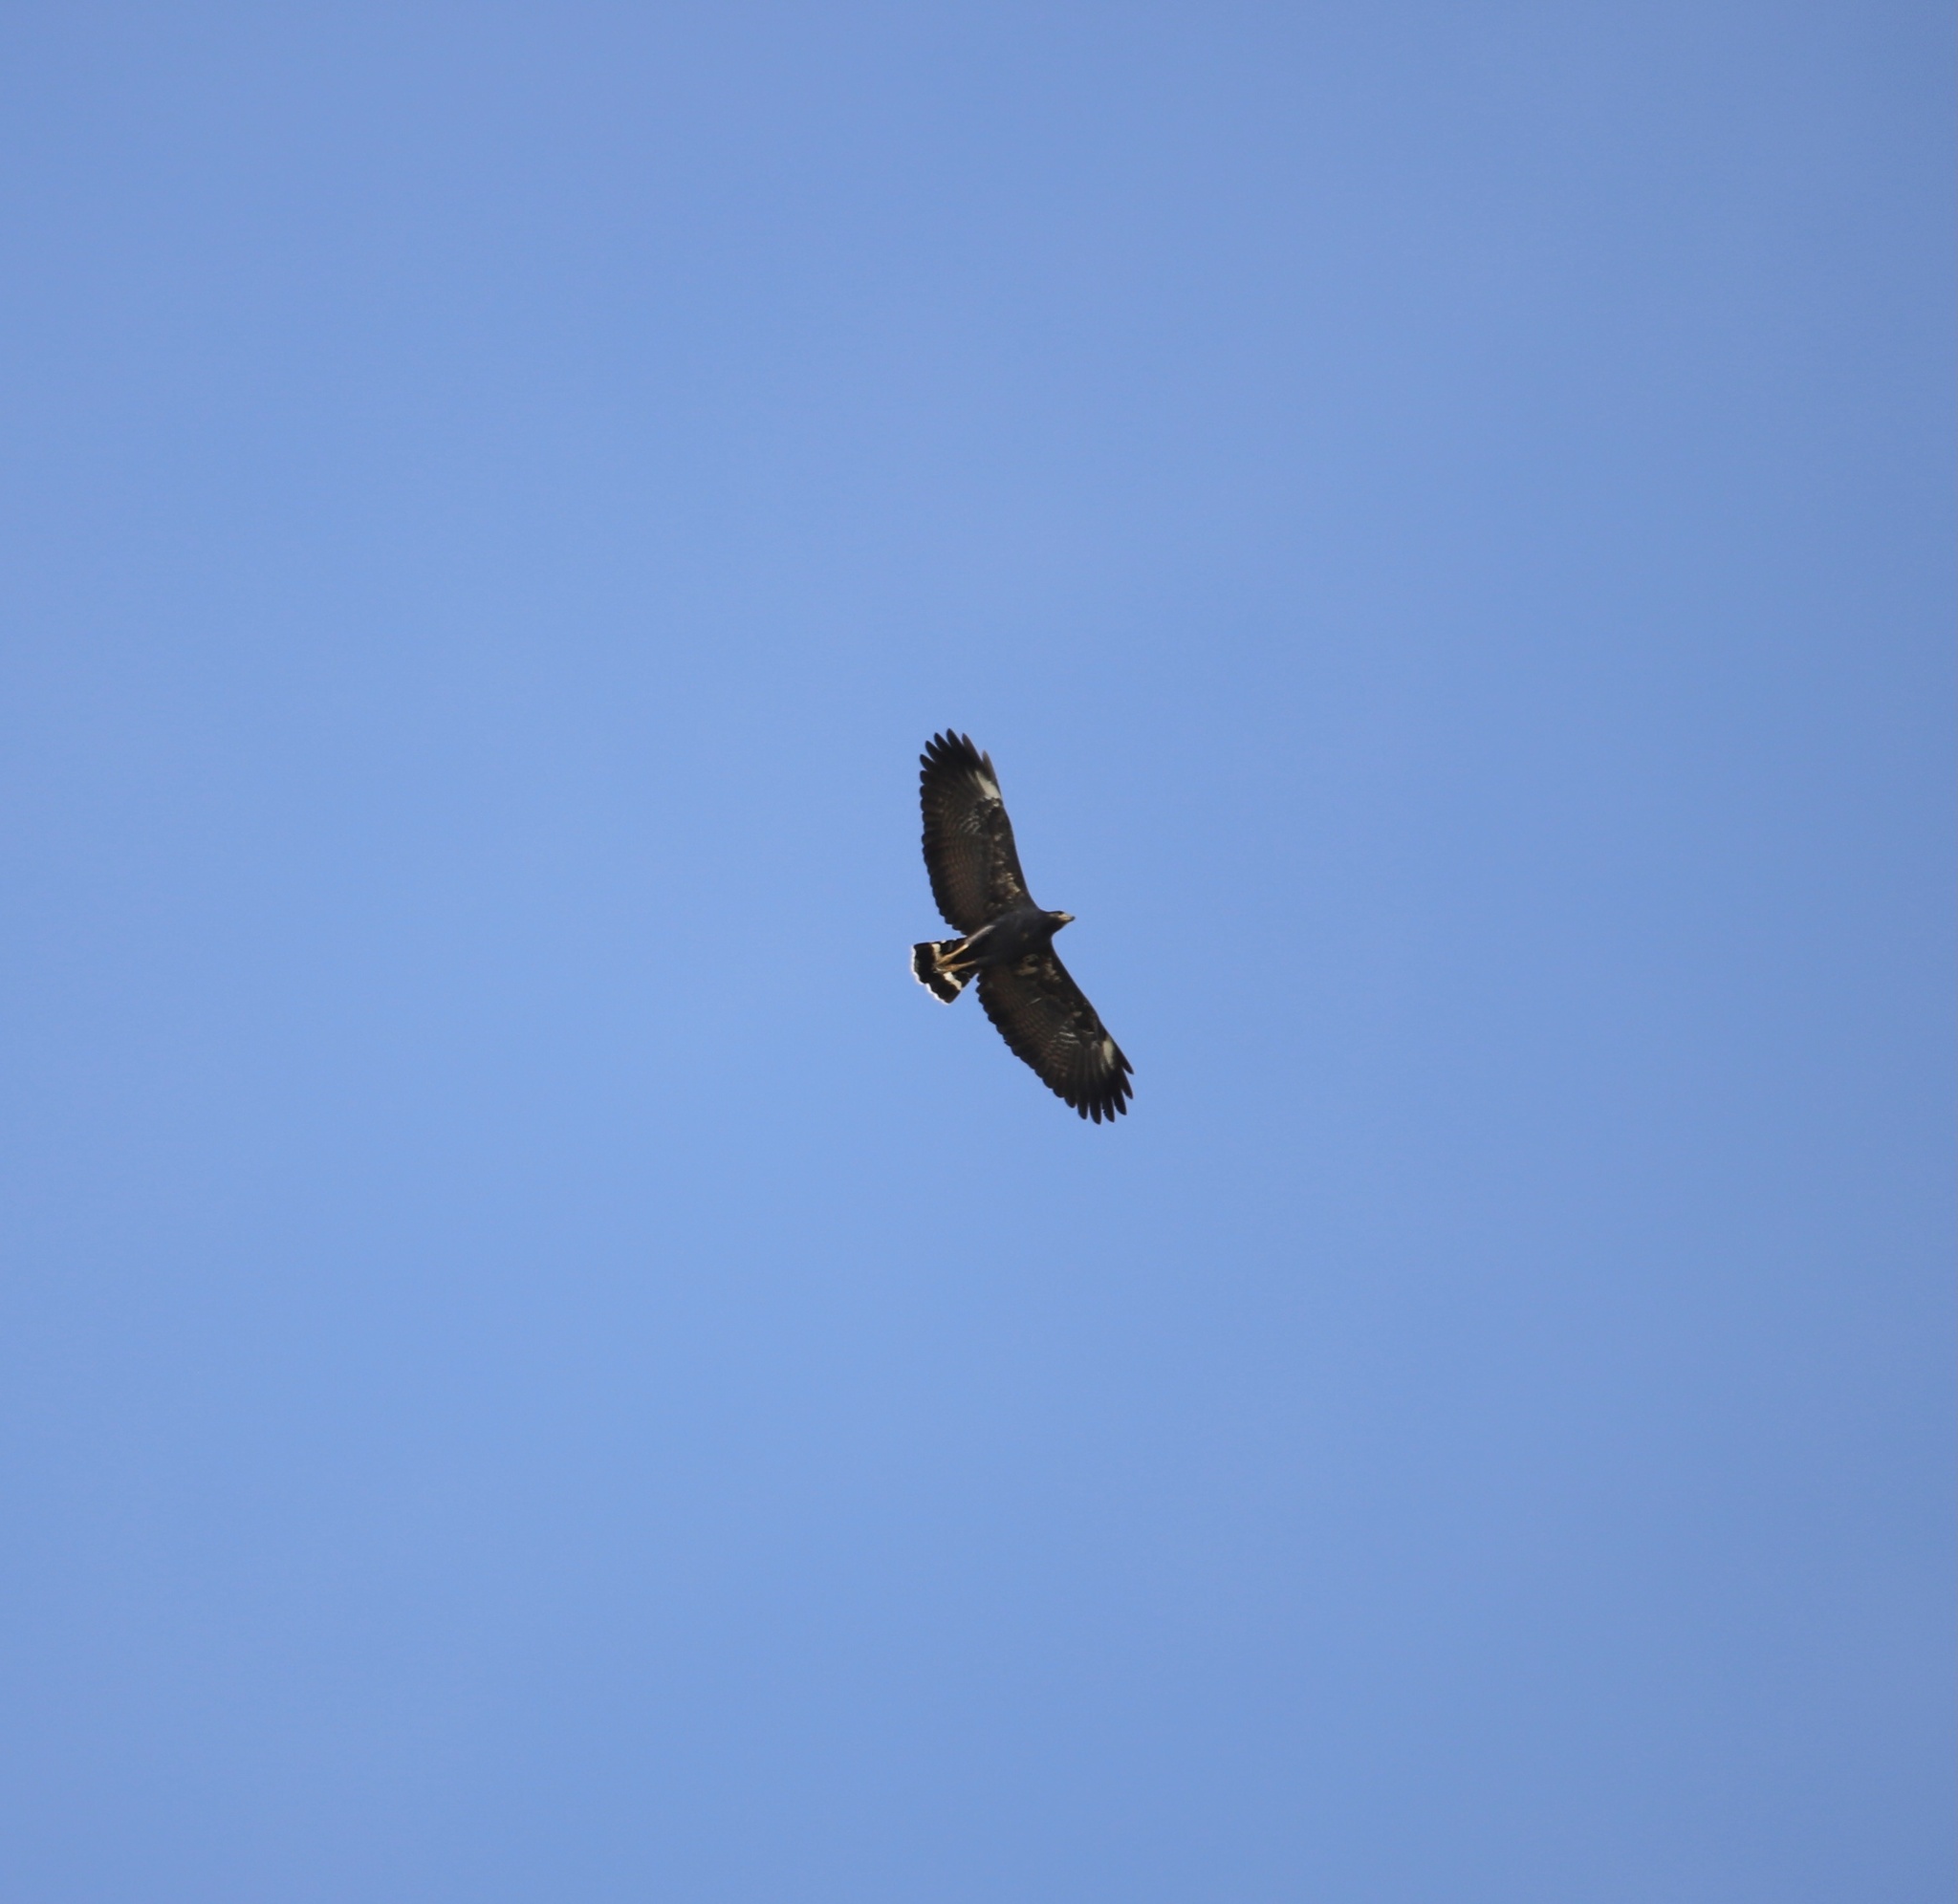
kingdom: Animalia
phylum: Chordata
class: Aves
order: Accipitriformes
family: Accipitridae
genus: Buteogallus
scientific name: Buteogallus anthracinus
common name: Common black hawk
